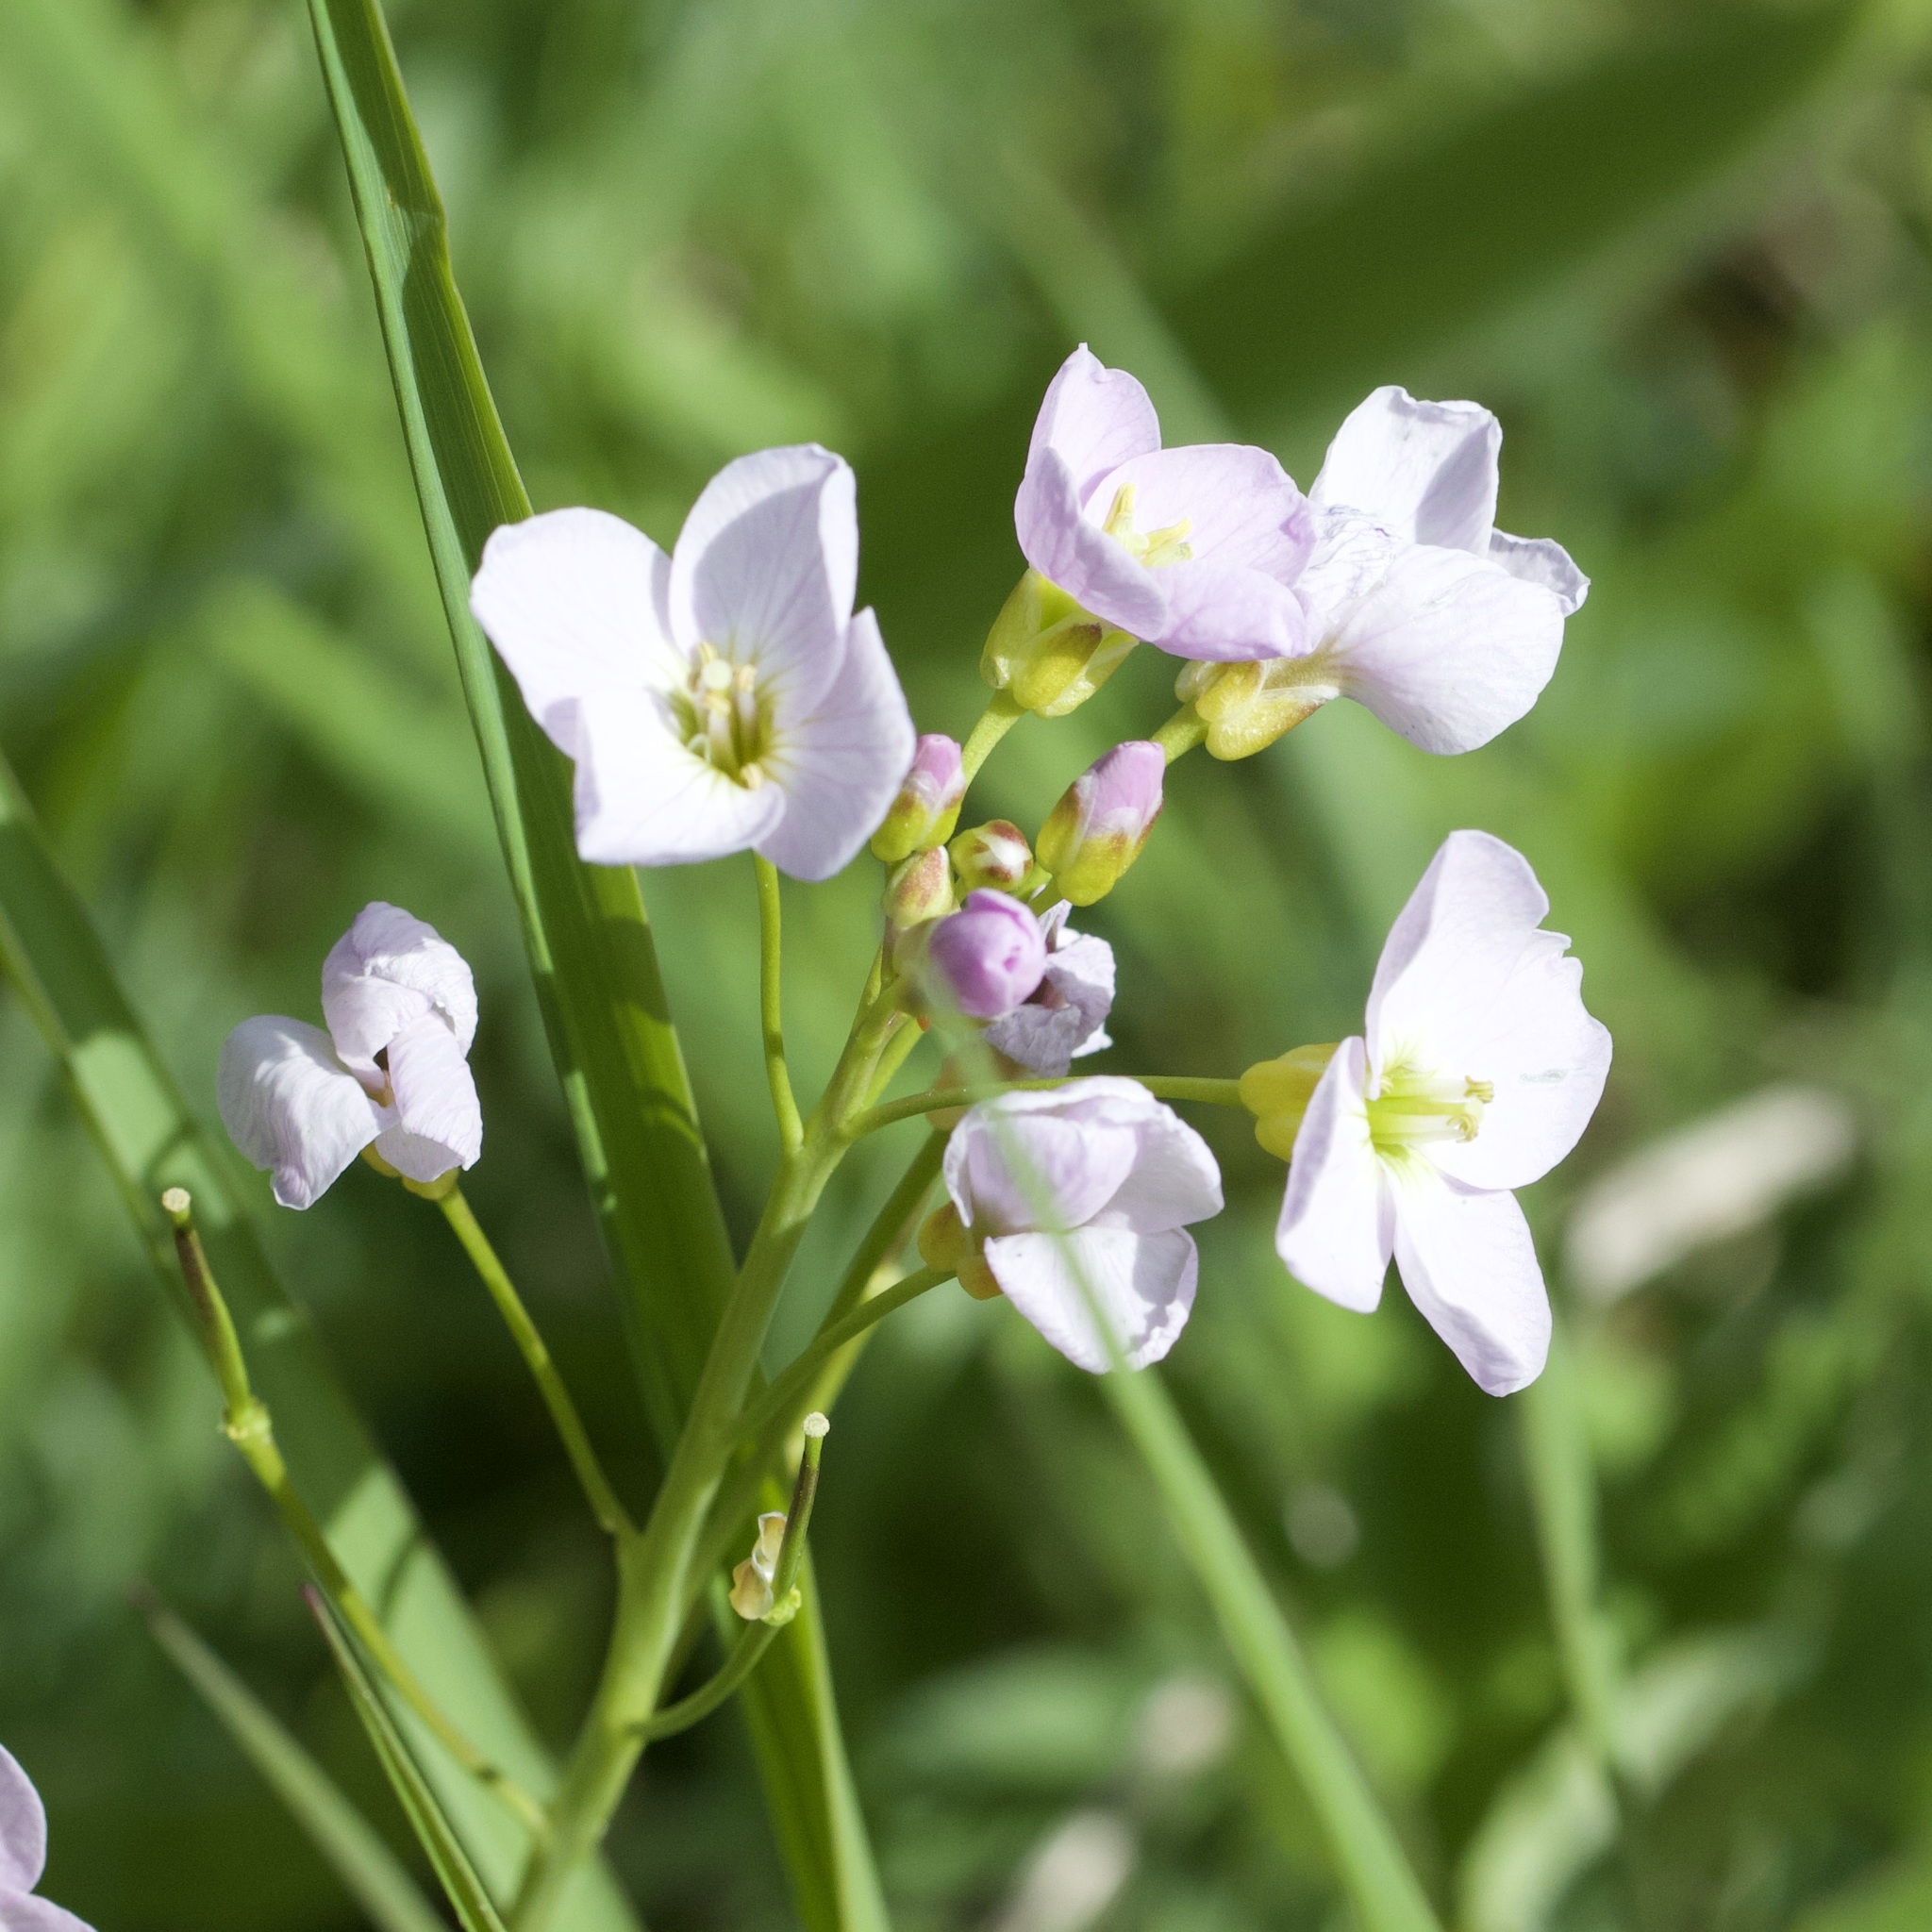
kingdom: Plantae
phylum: Tracheophyta
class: Magnoliopsida
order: Brassicales
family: Brassicaceae
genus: Cardamine
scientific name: Cardamine pratensis
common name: Cuckoo flower
